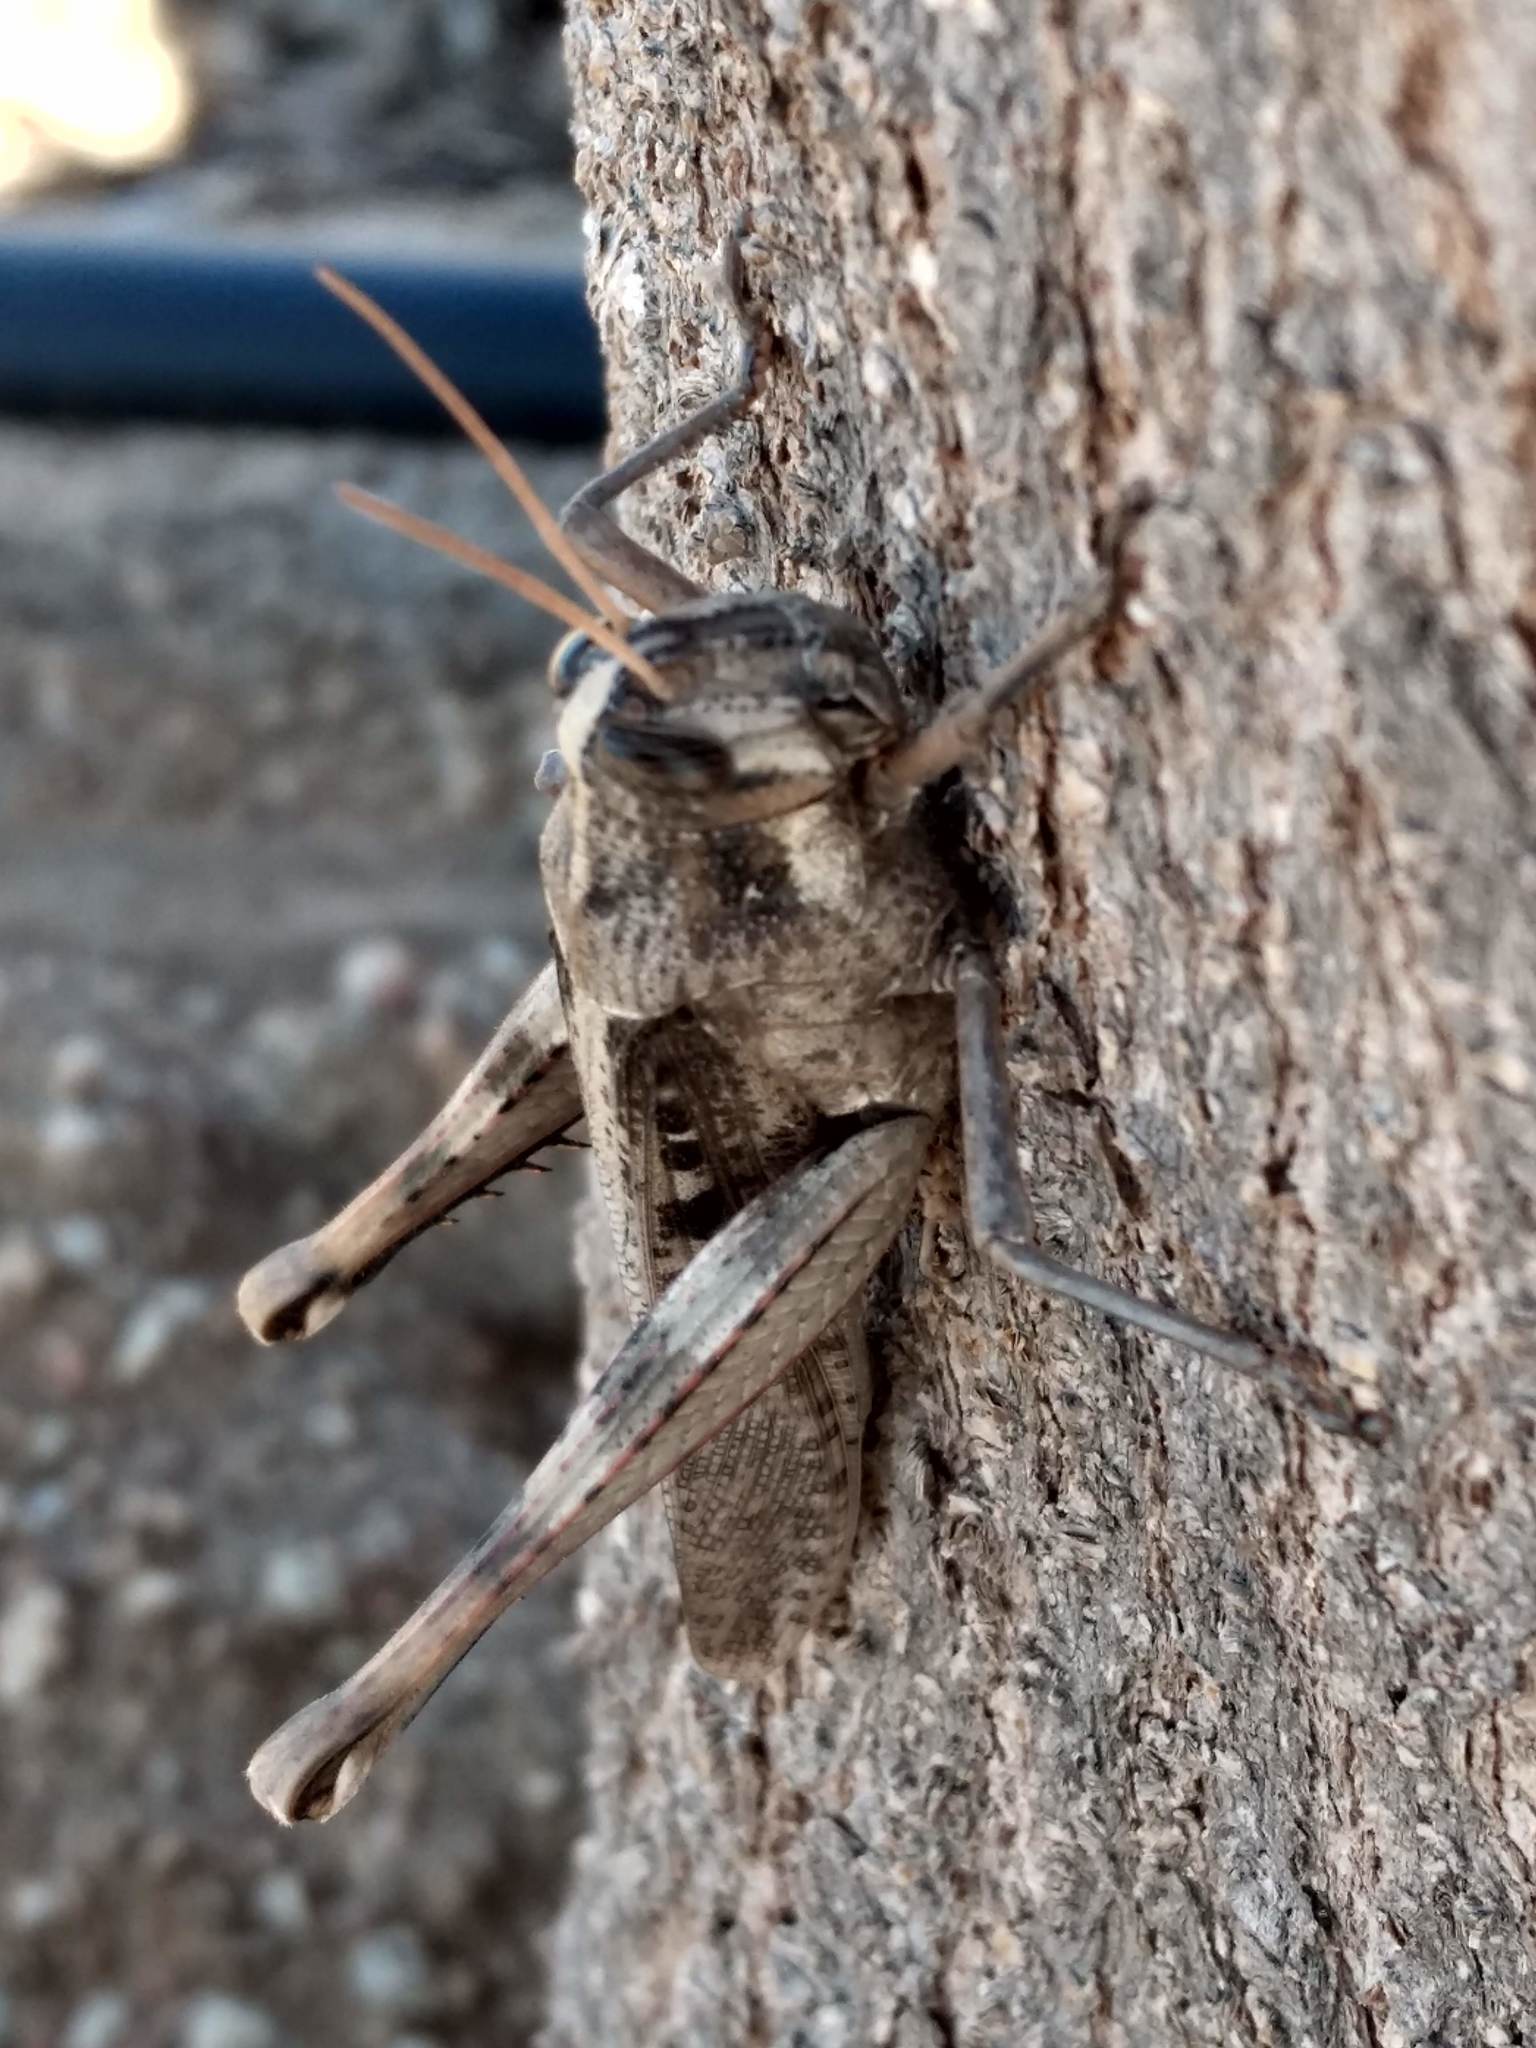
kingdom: Animalia
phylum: Arthropoda
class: Insecta
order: Orthoptera
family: Acrididae
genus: Schistocerca
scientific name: Schistocerca nitens
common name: Vagrant grasshopper
